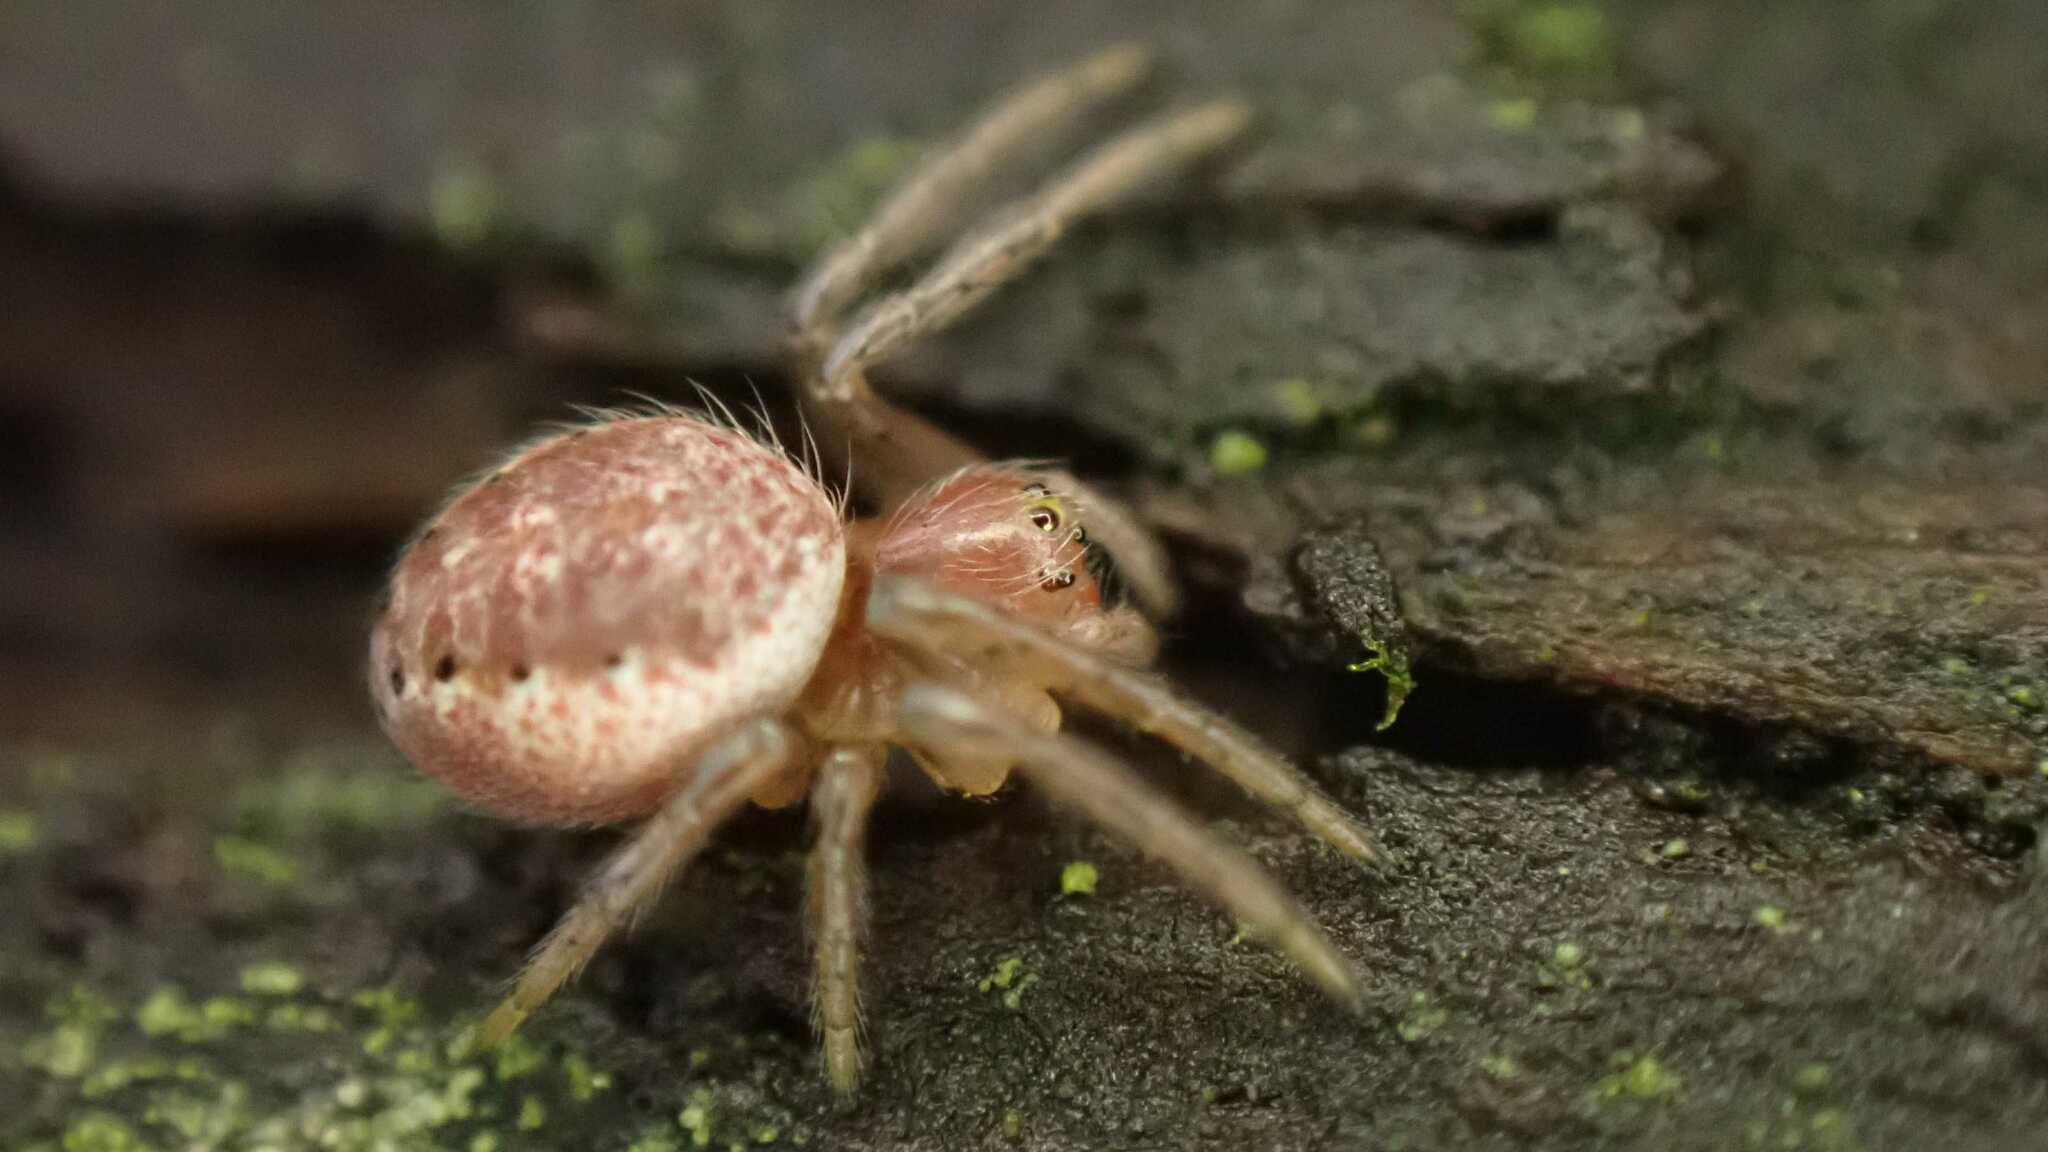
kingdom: Animalia
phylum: Arthropoda
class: Arachnida
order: Araneae
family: Araneidae
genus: Araniella
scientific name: Araniella
